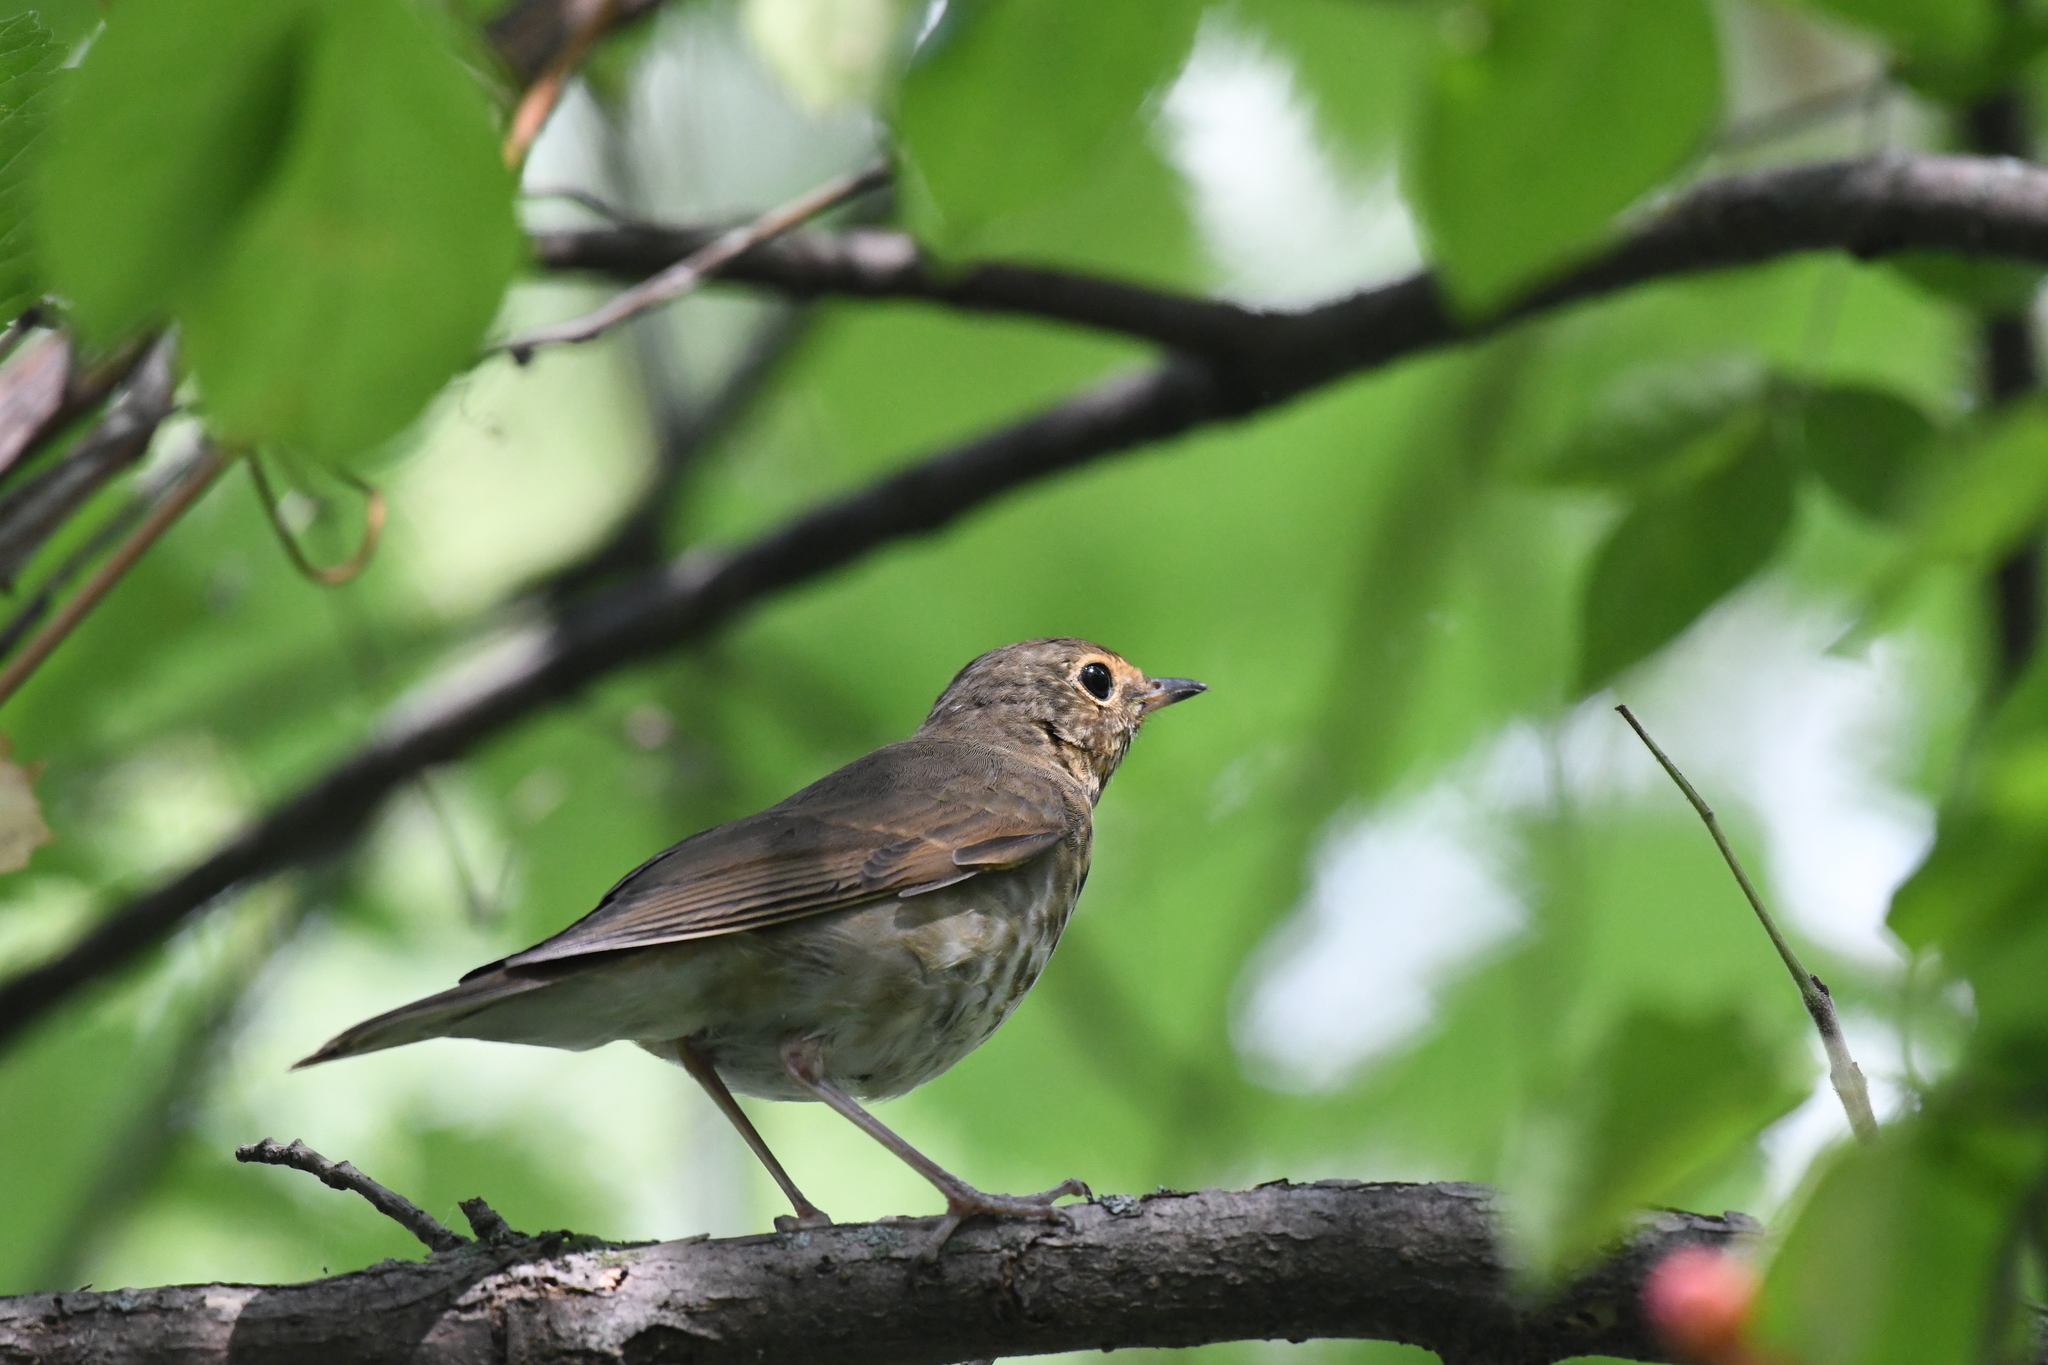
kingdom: Animalia
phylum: Chordata
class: Aves
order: Passeriformes
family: Turdidae
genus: Catharus
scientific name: Catharus ustulatus
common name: Swainson's thrush
